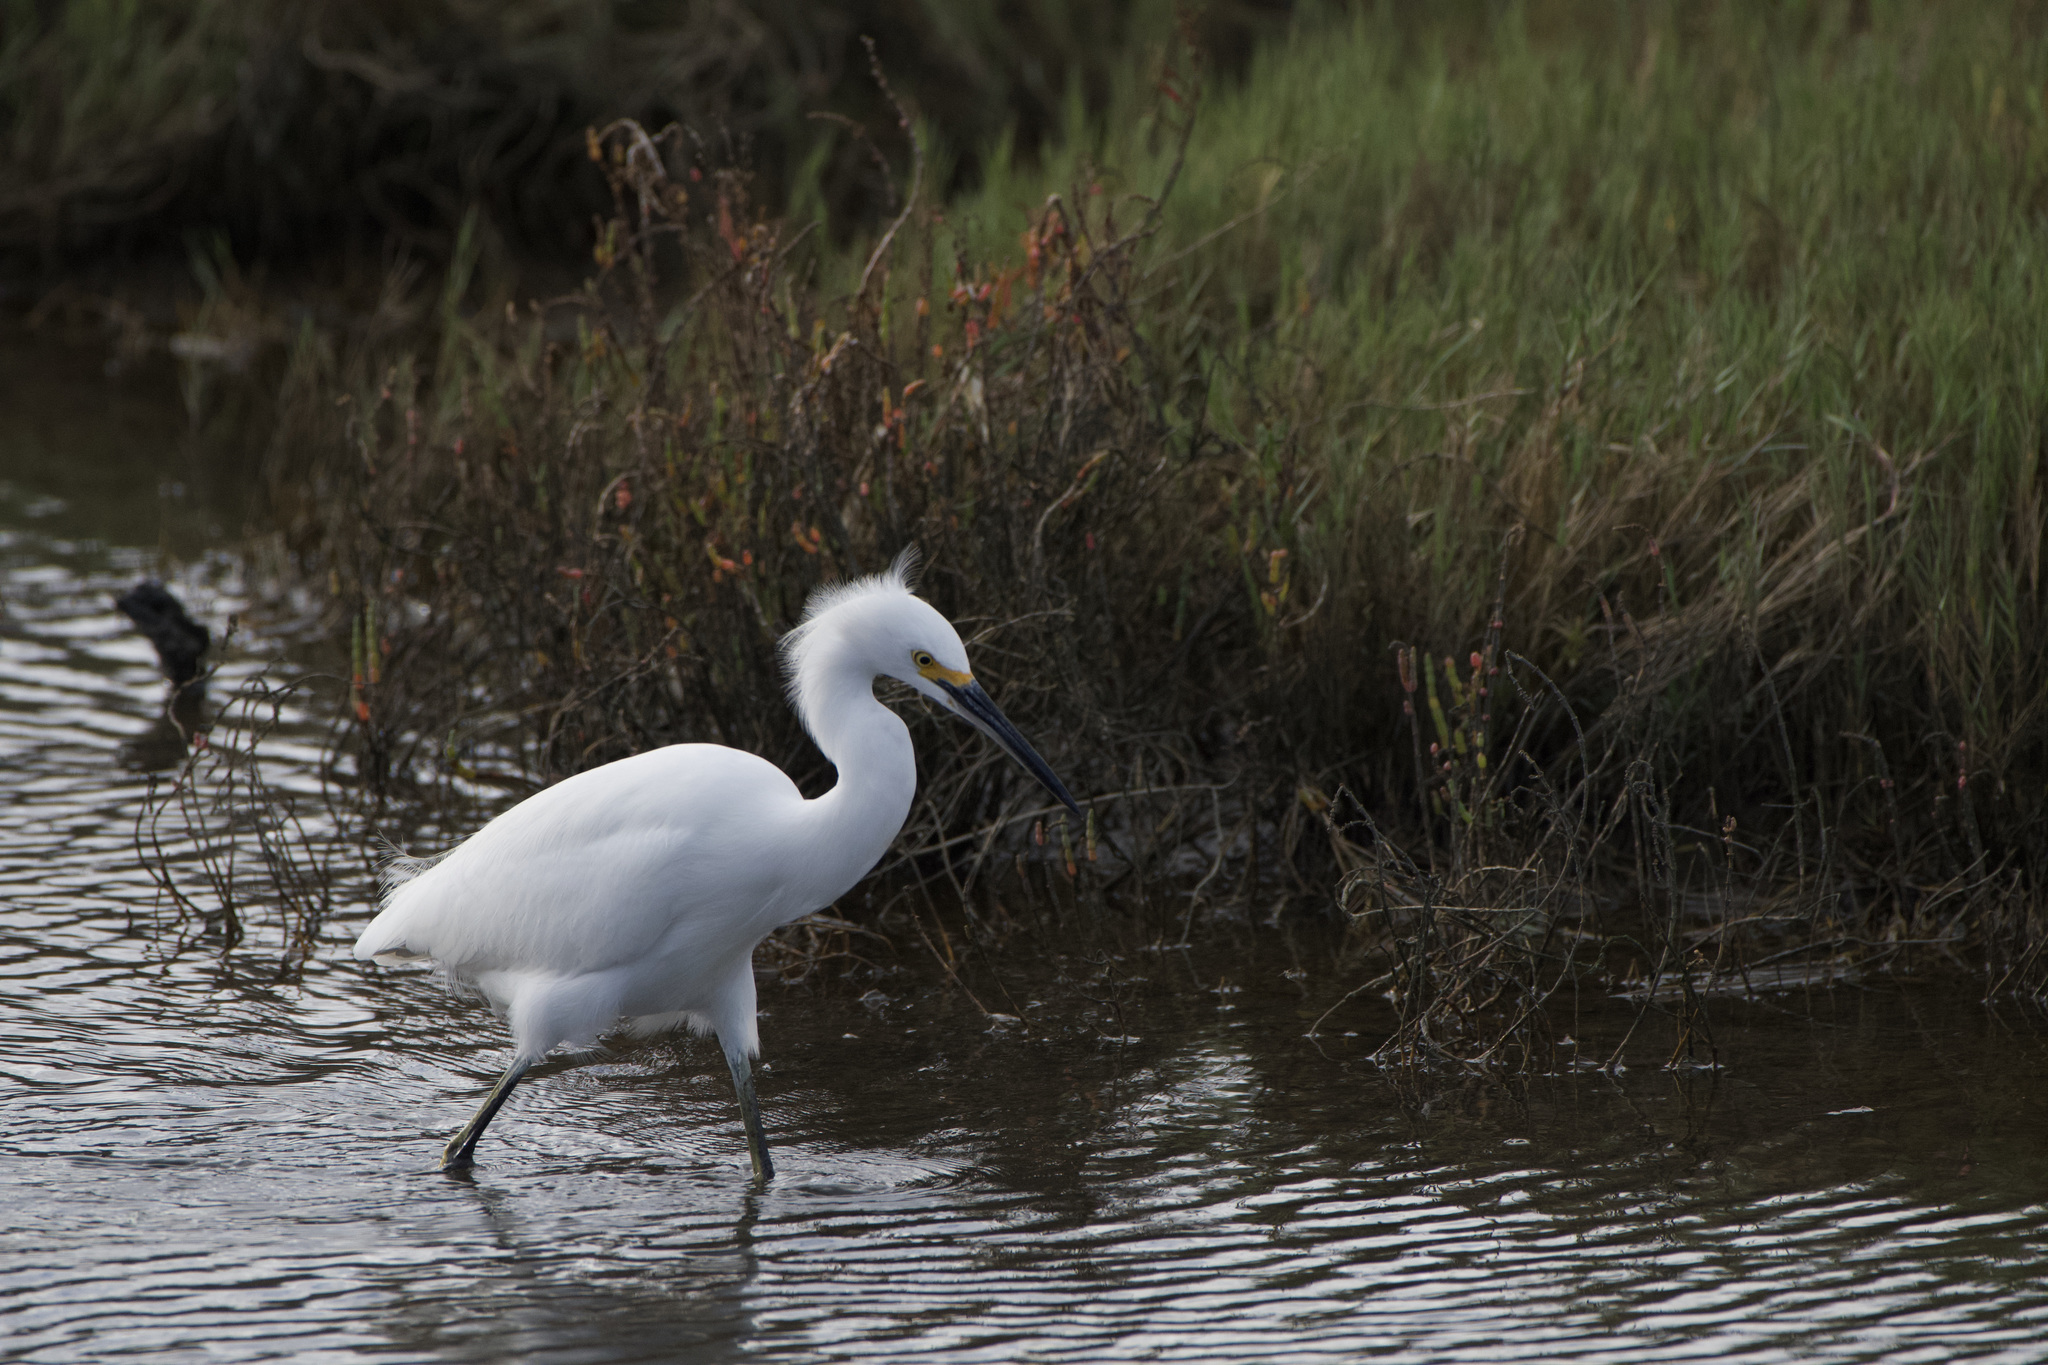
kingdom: Animalia
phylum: Chordata
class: Aves
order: Pelecaniformes
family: Ardeidae
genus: Egretta
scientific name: Egretta thula
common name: Snowy egret
